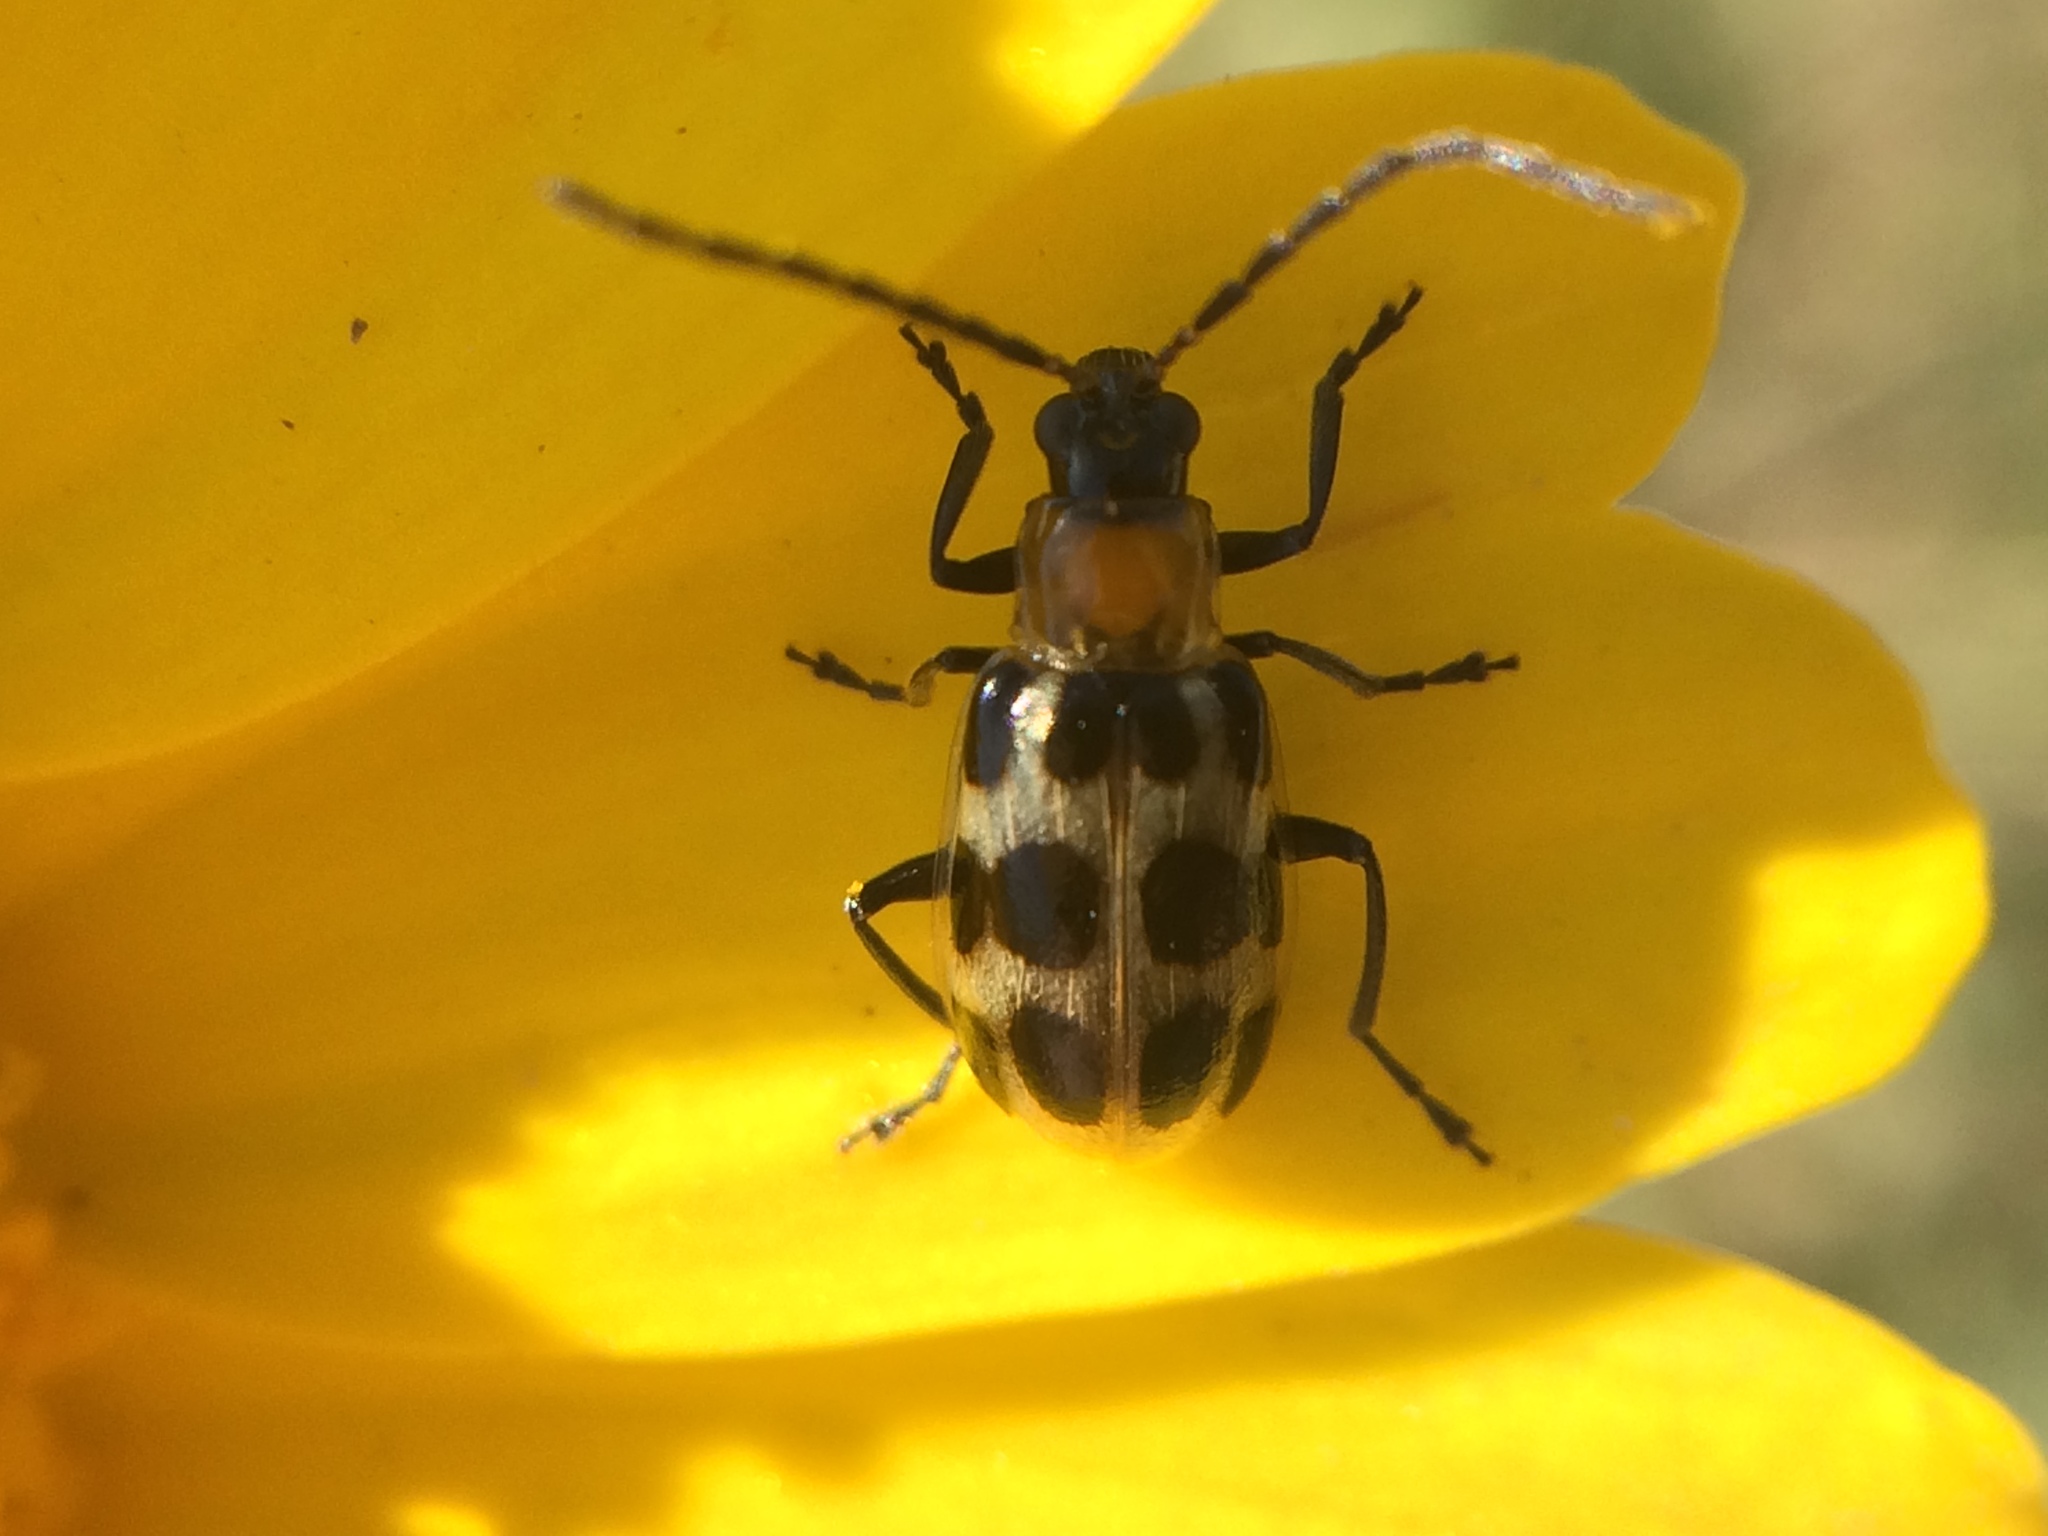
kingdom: Animalia
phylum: Arthropoda
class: Insecta
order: Coleoptera
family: Chrysomelidae
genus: Diabrotica
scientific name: Diabrotica undecimpunctata
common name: Spotted cucumber beetle
